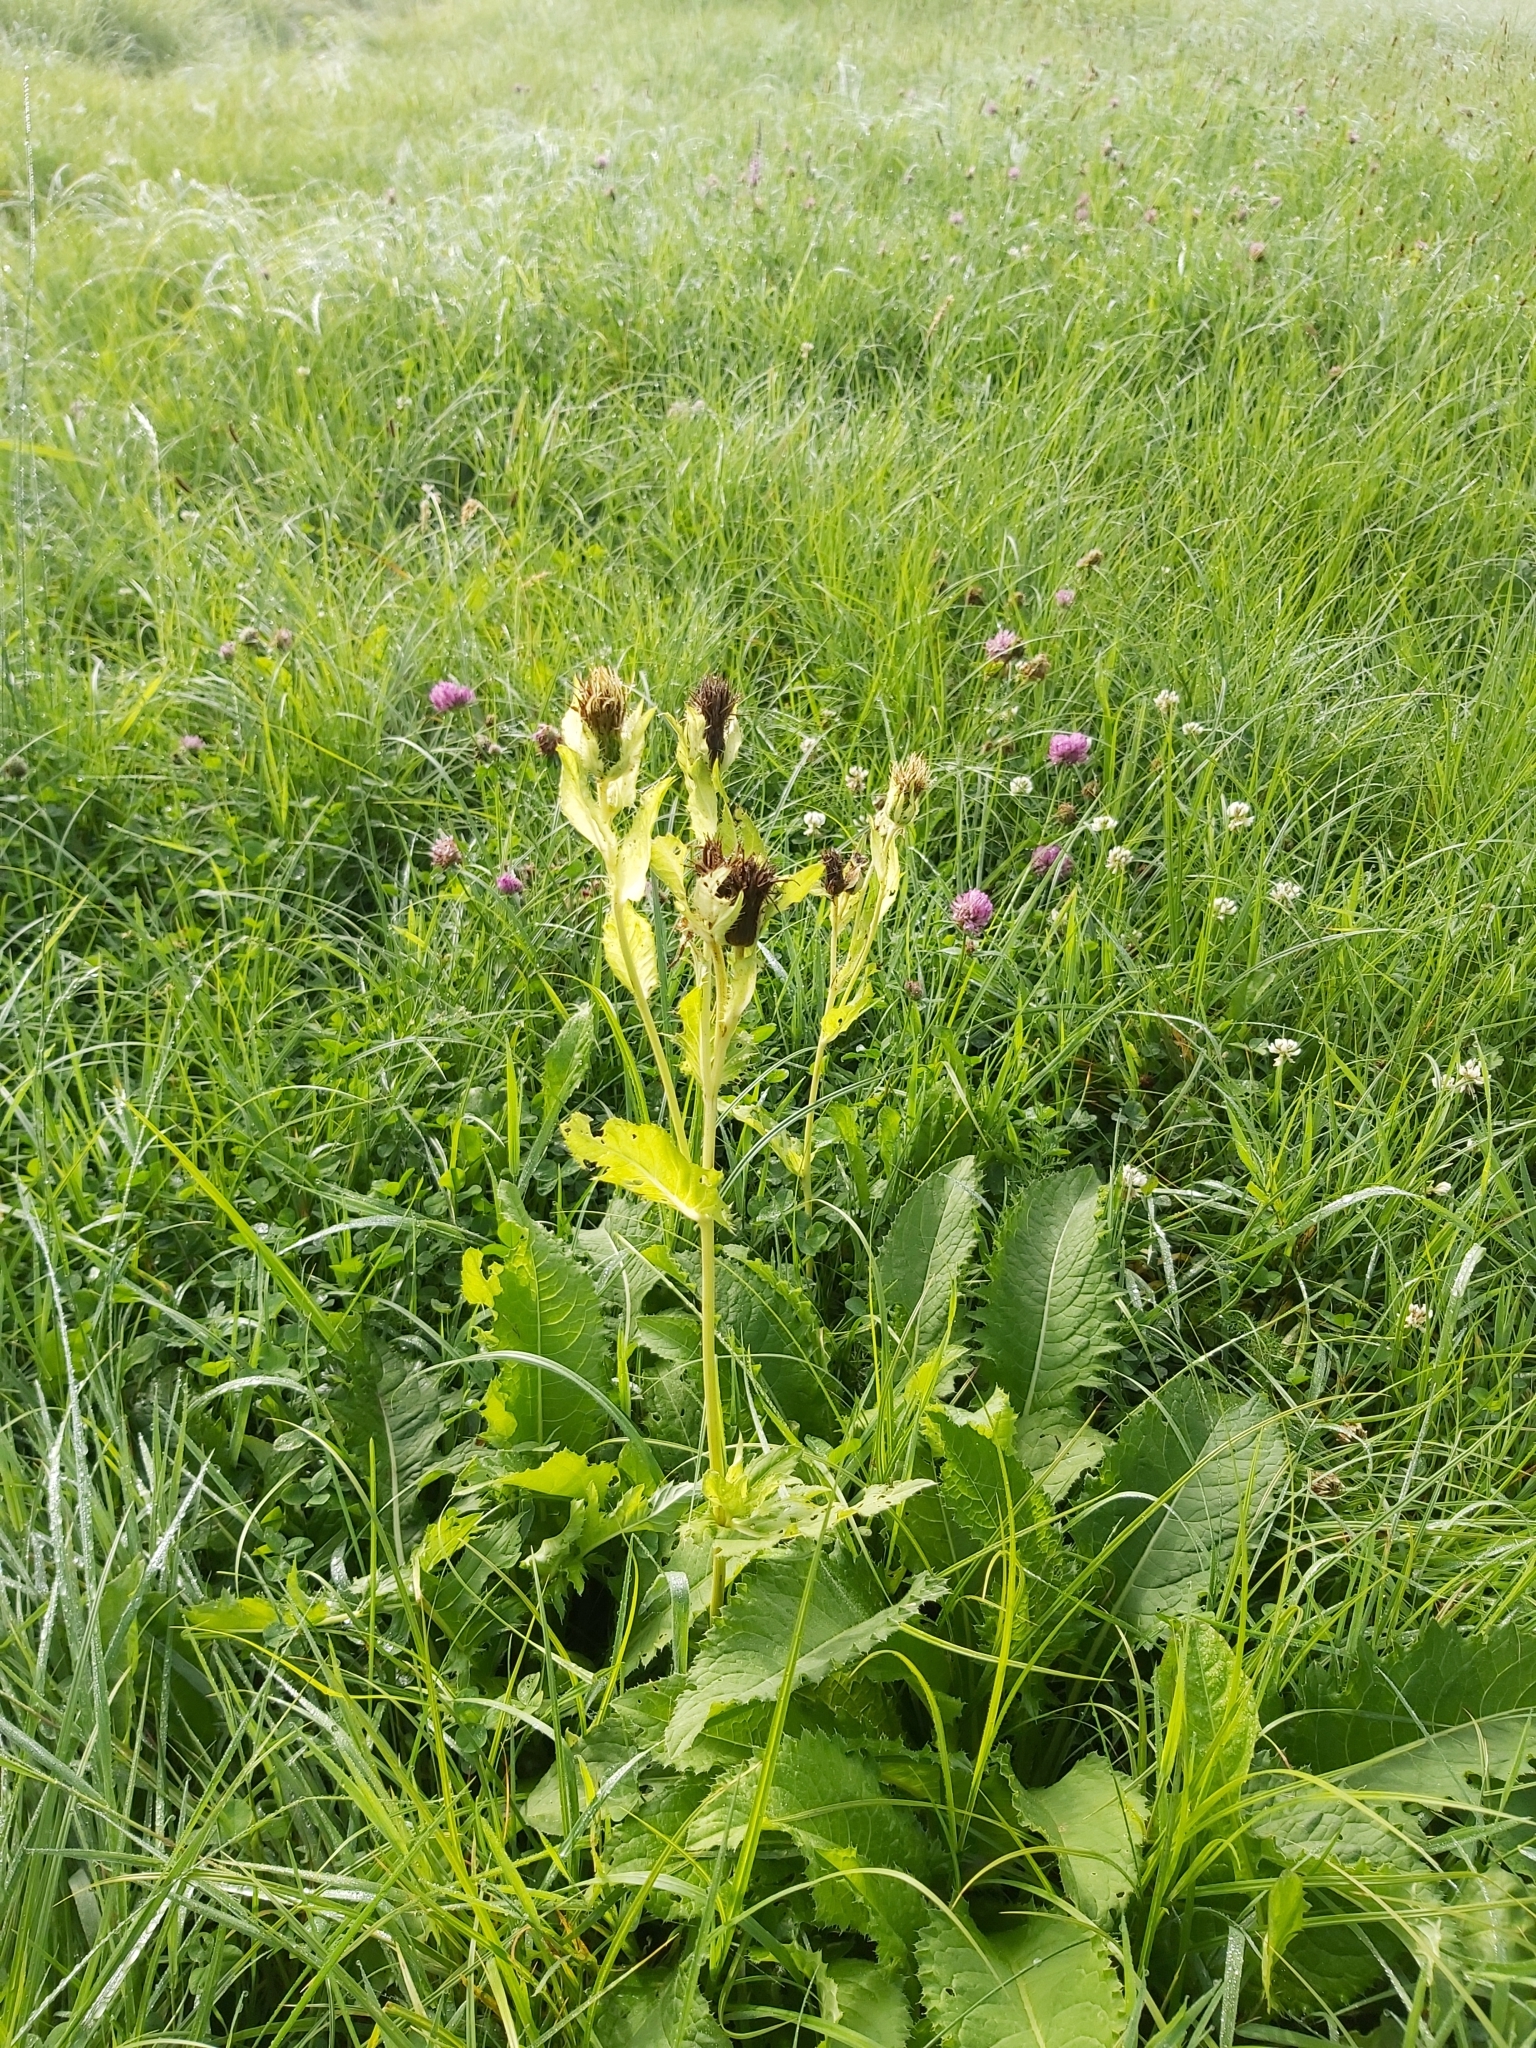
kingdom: Plantae
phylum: Tracheophyta
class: Magnoliopsida
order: Asterales
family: Asteraceae
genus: Cirsium
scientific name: Cirsium oleraceum
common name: Cabbage thistle
